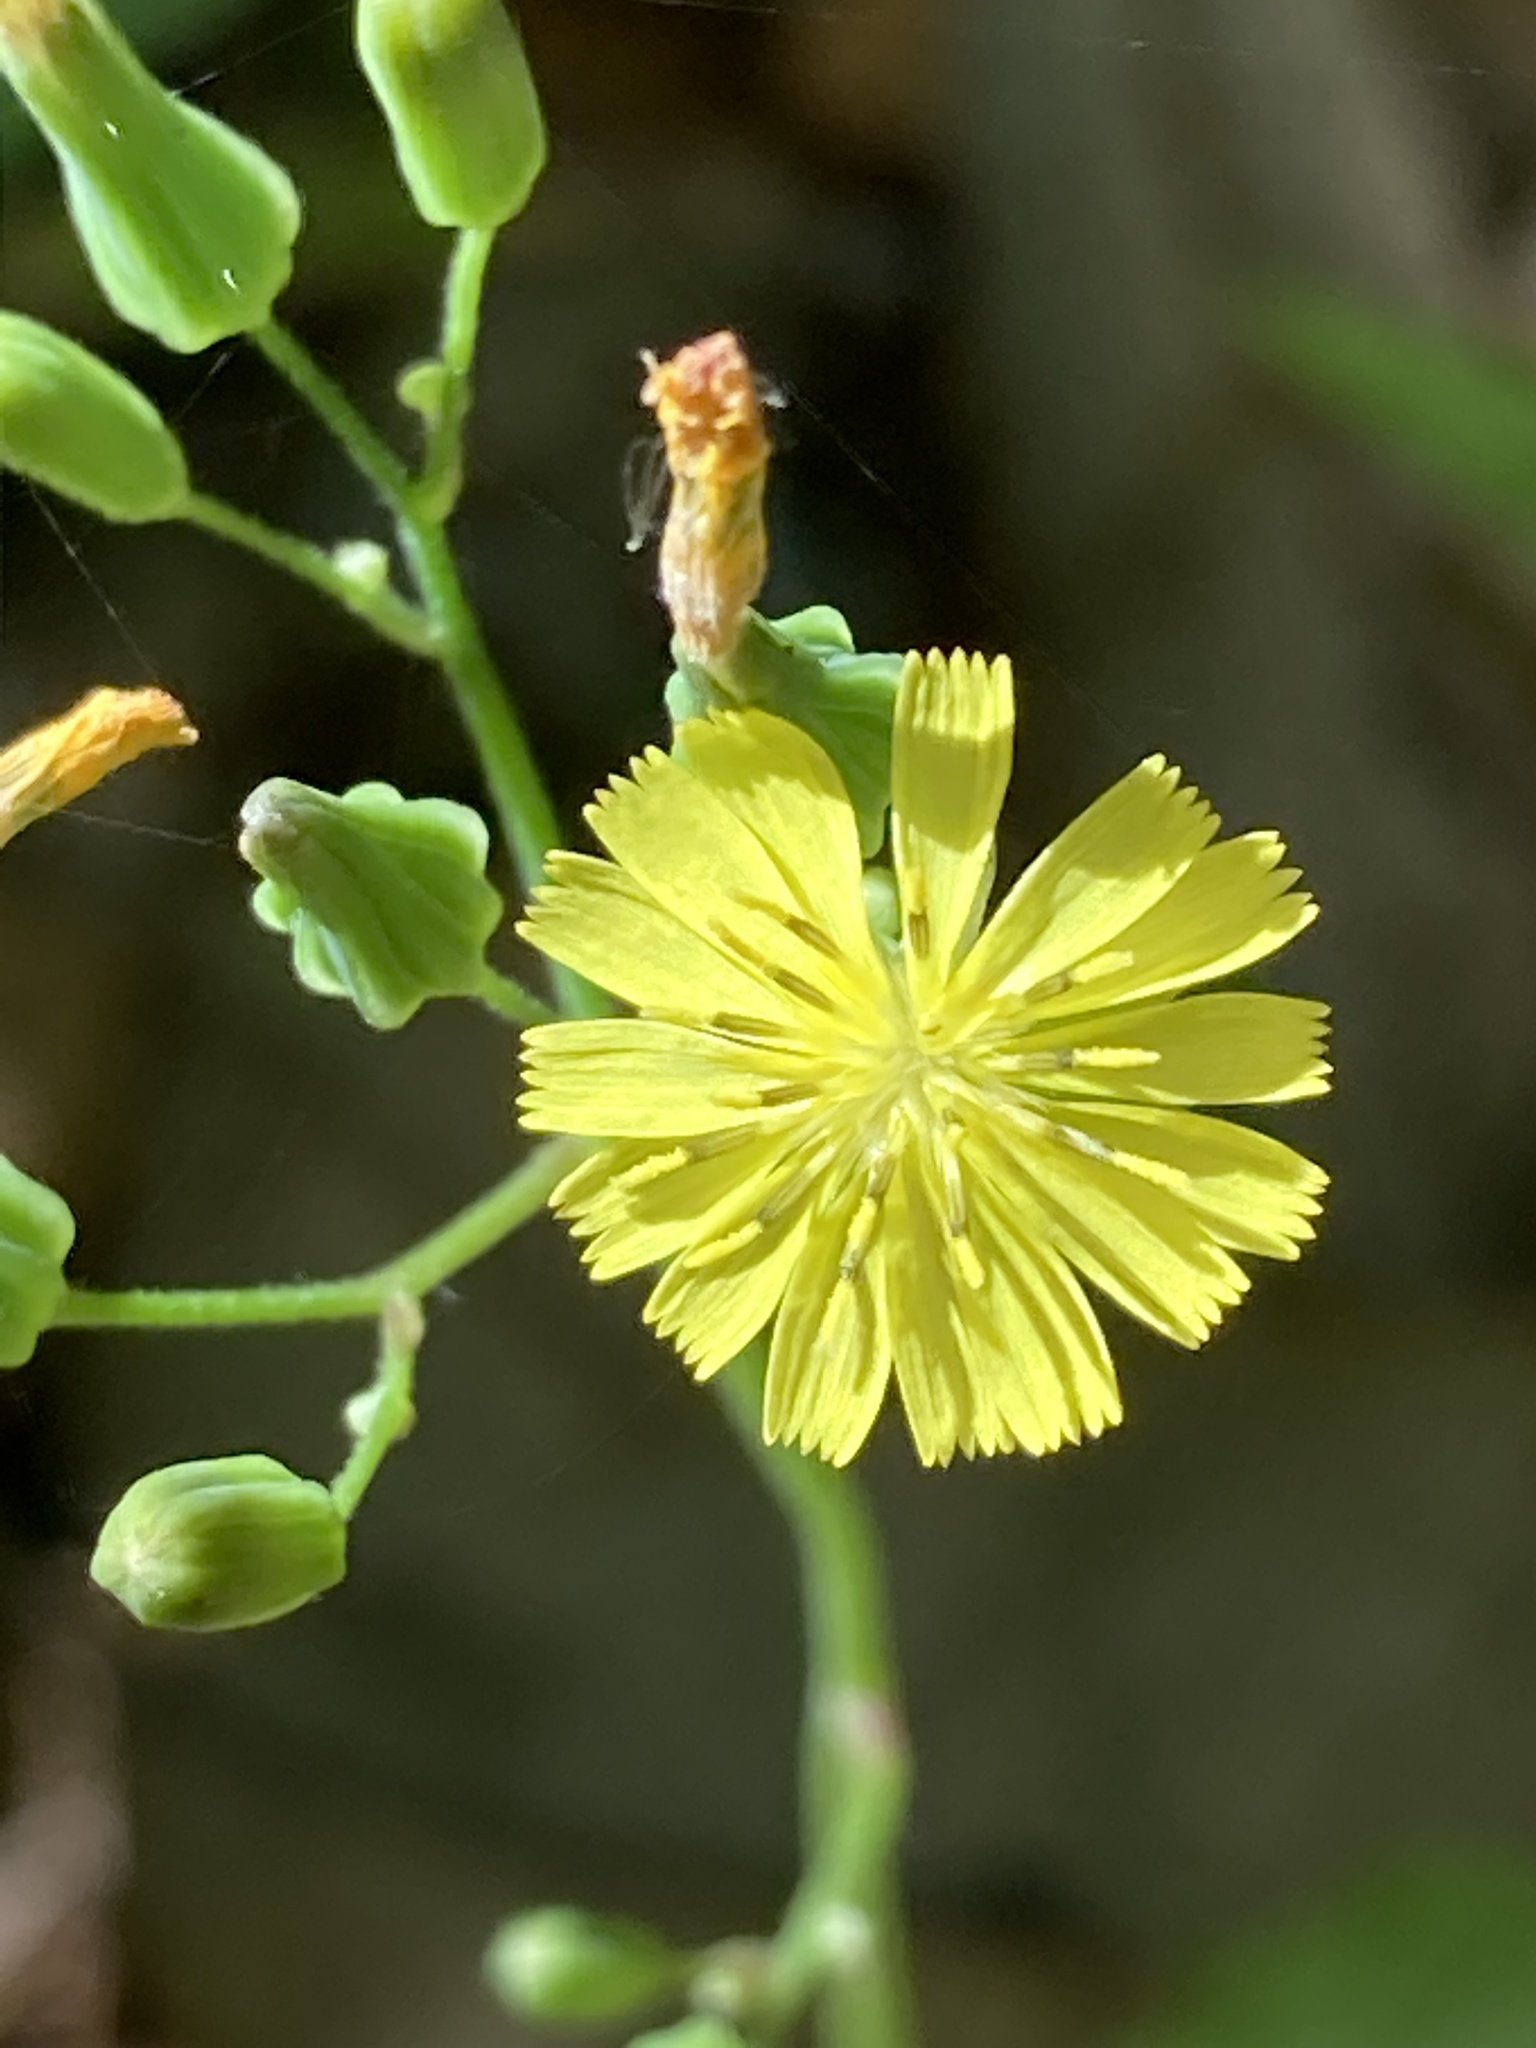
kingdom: Plantae
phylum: Tracheophyta
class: Magnoliopsida
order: Asterales
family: Asteraceae
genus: Youngia
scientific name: Youngia japonica
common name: Oriental false hawksbeard
